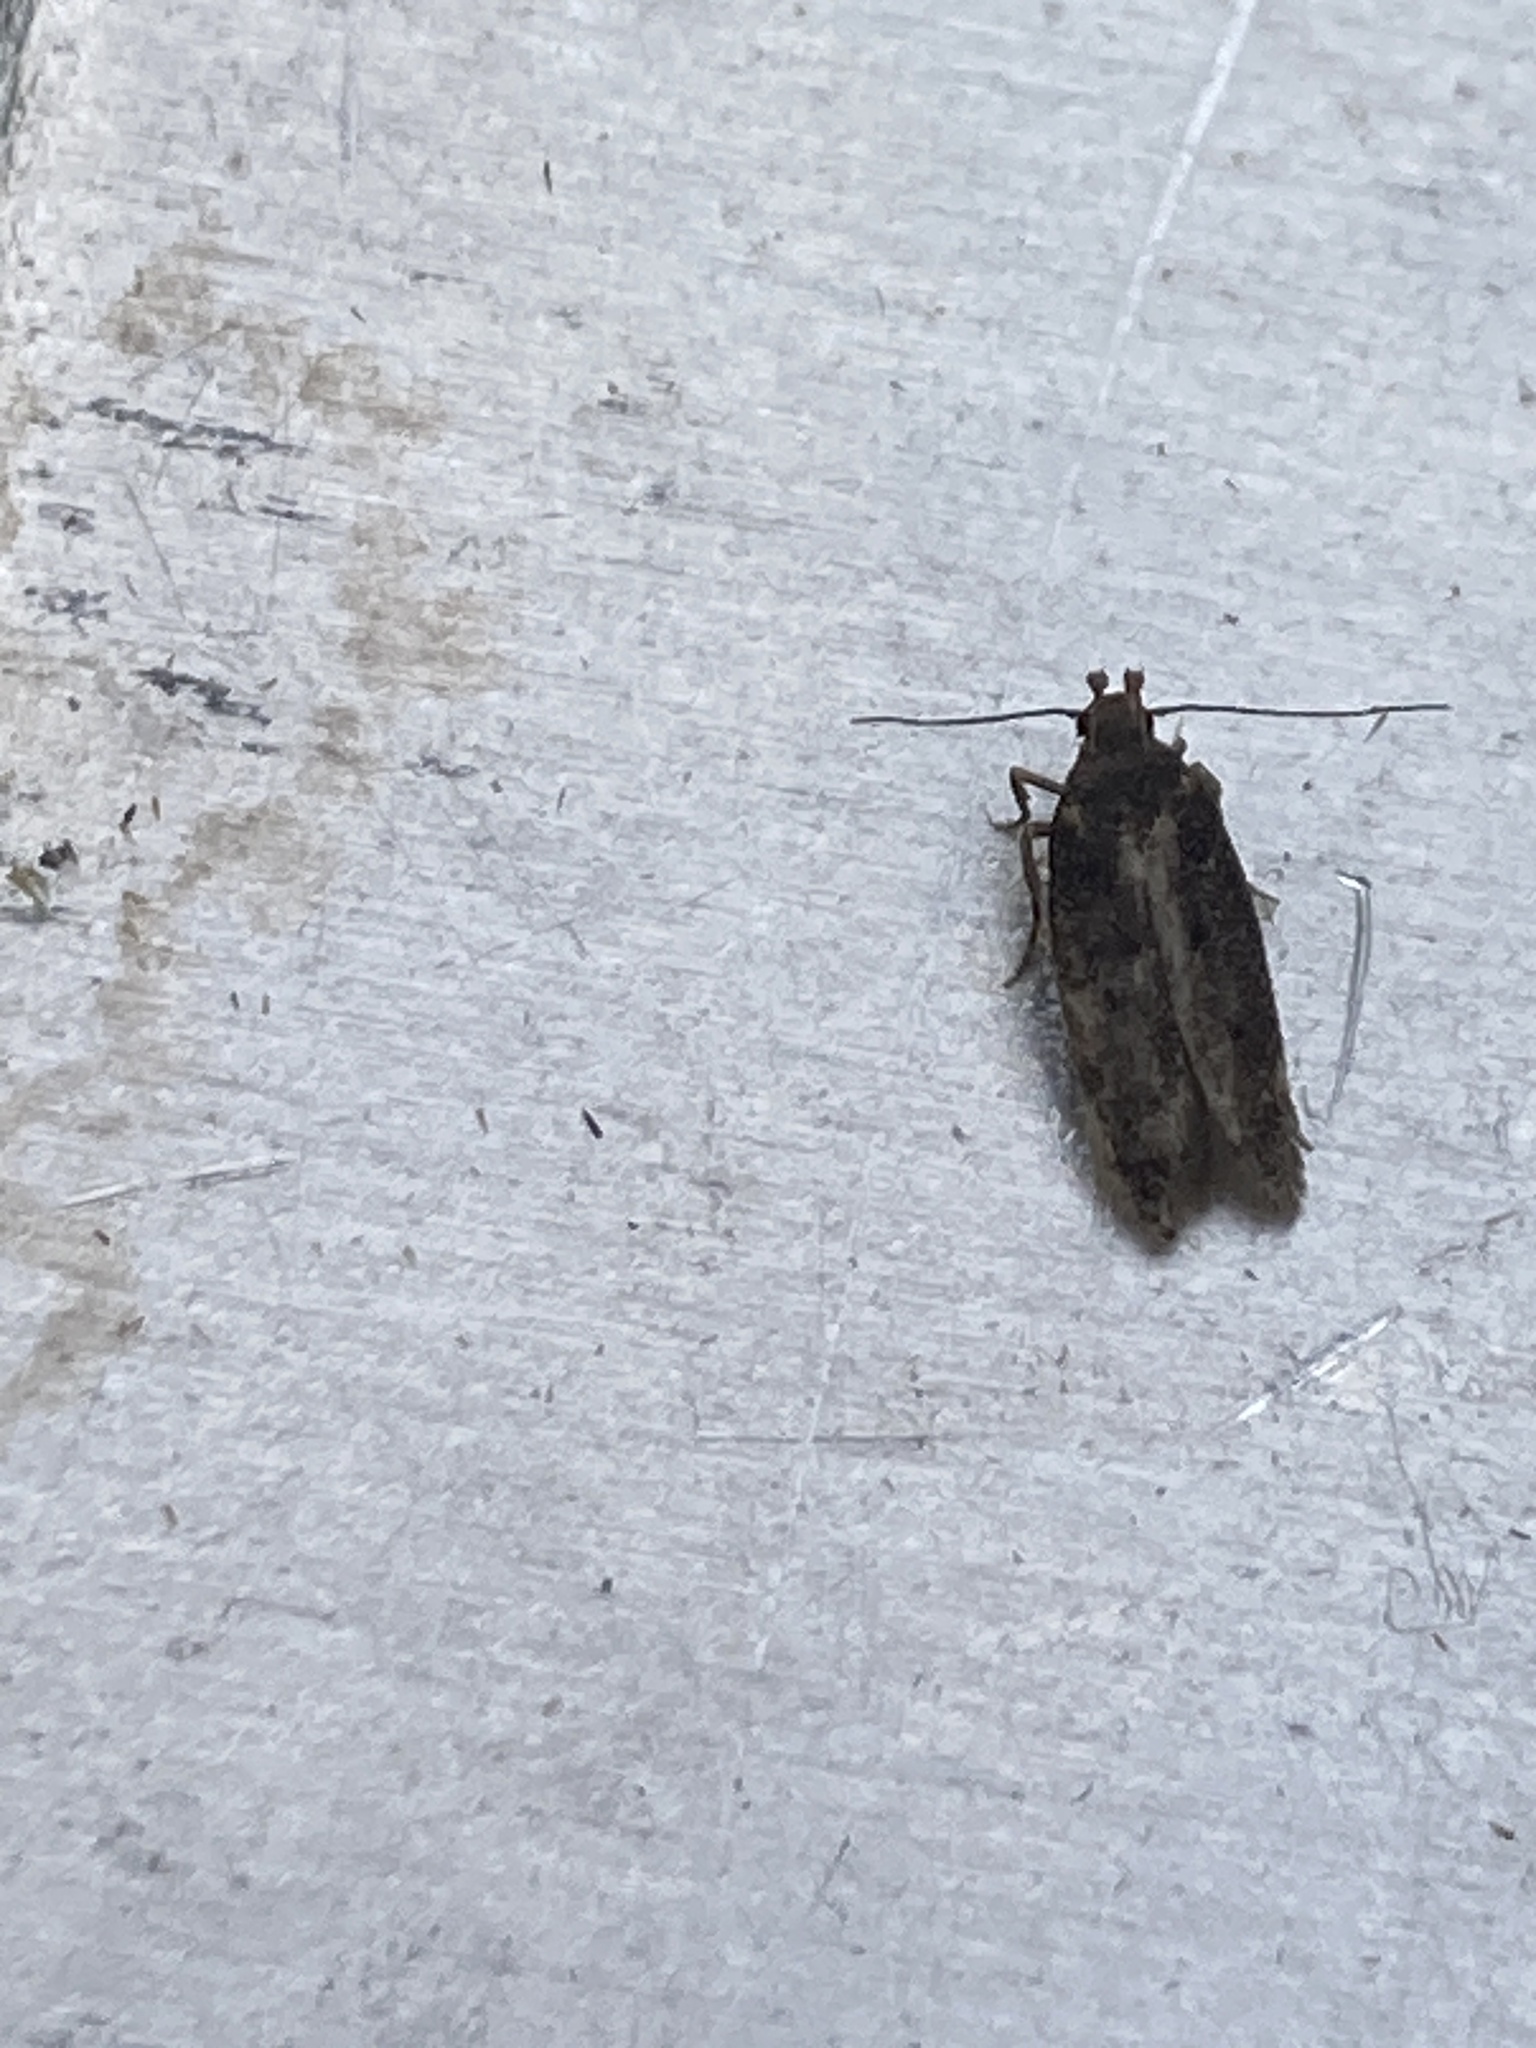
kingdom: Animalia
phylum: Arthropoda
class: Insecta
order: Lepidoptera
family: Oecophoridae
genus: Hofmannophila
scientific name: Hofmannophila pseudospretella
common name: Brown house moth
